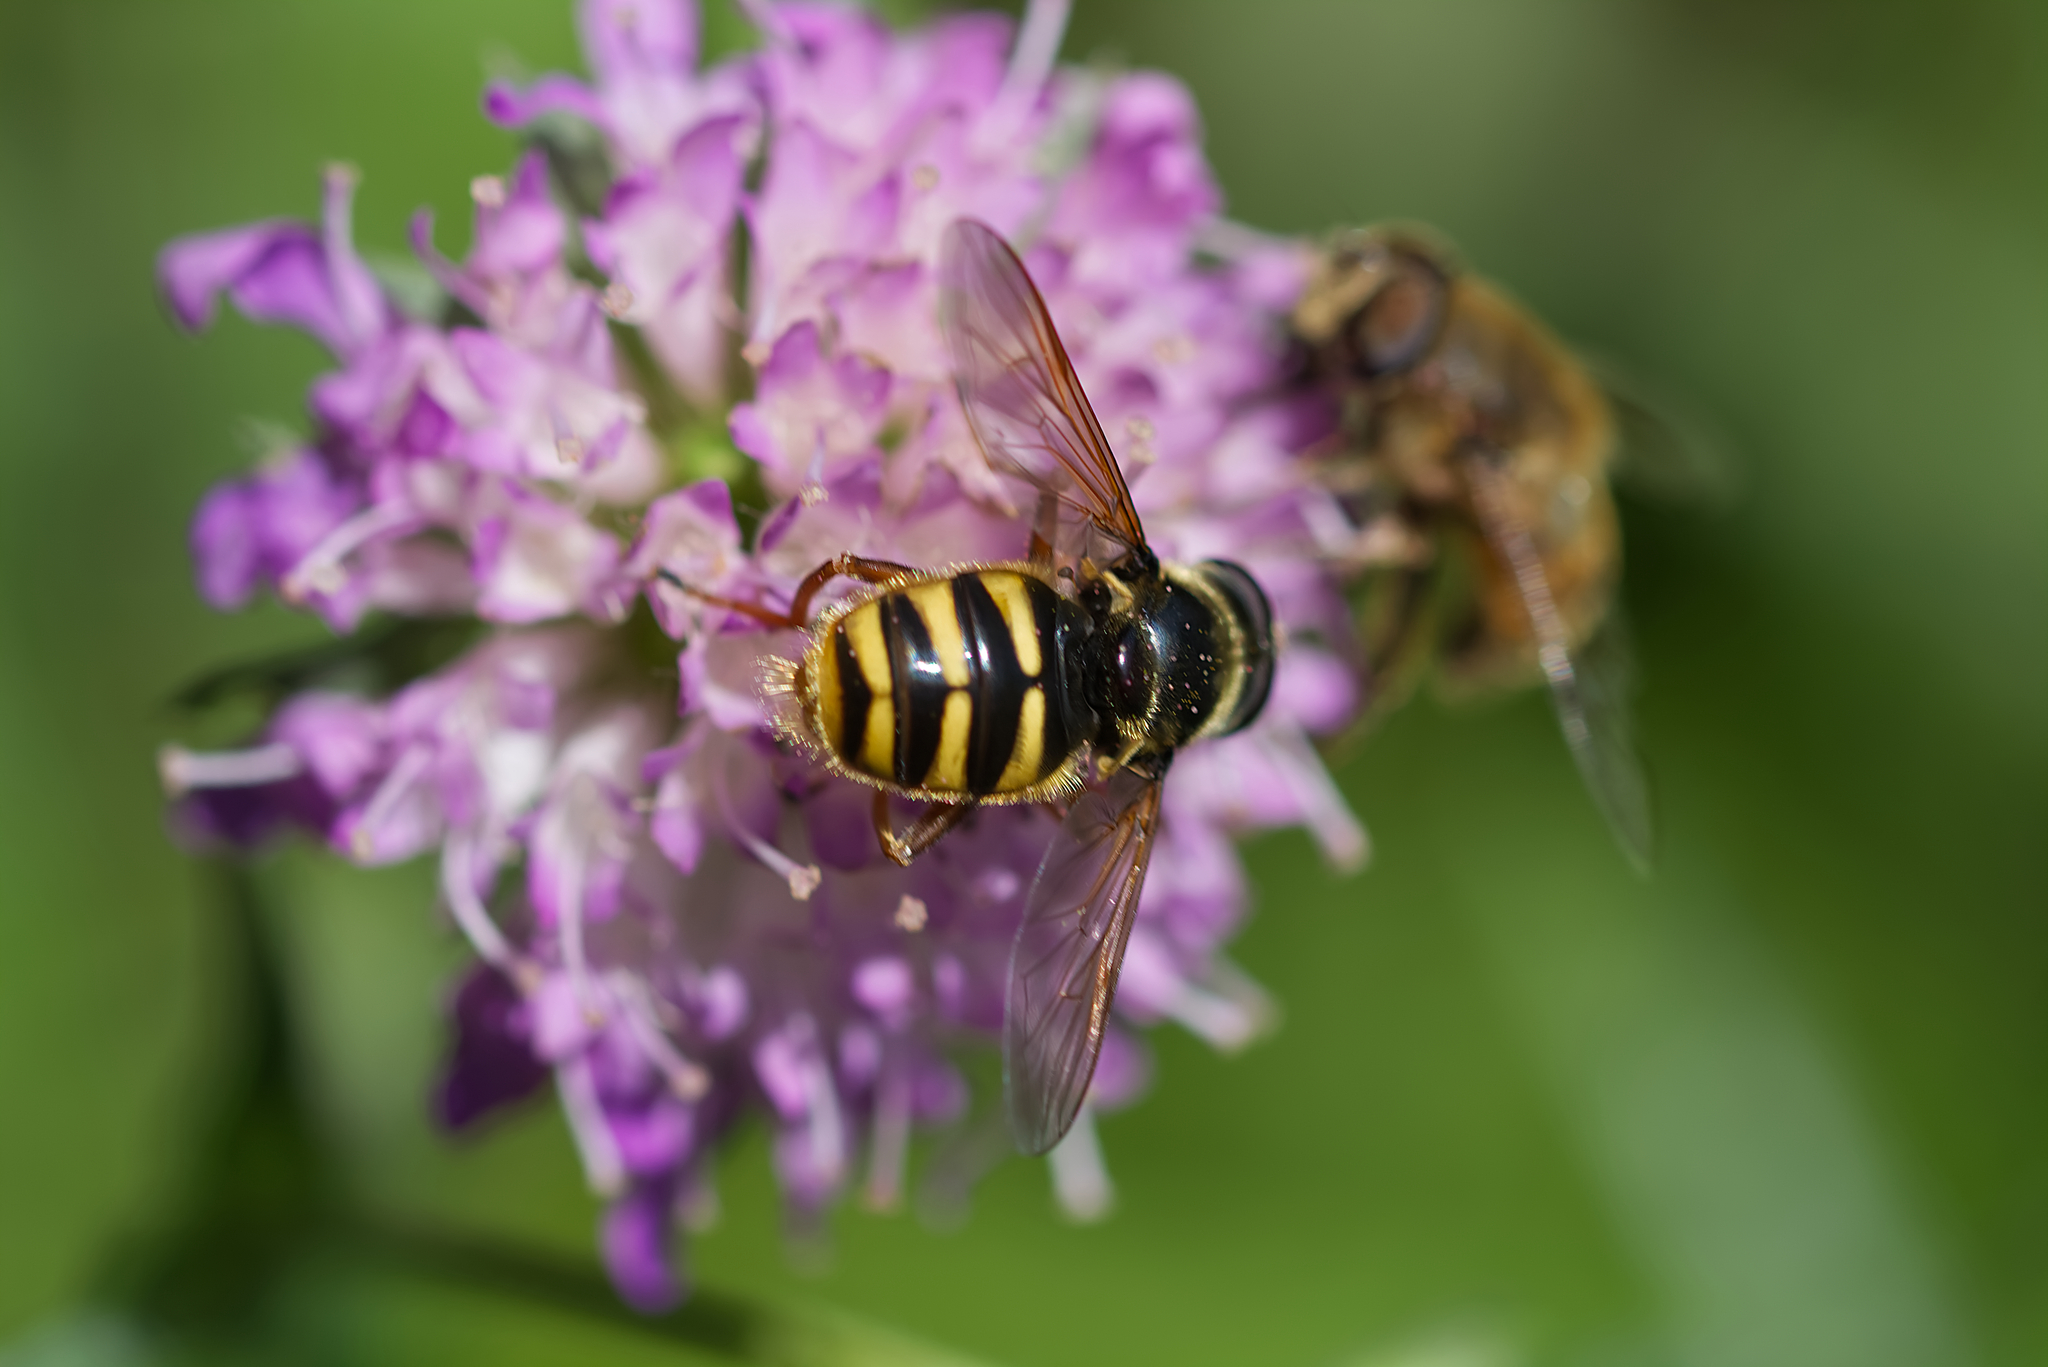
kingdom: Animalia
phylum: Arthropoda
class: Insecta
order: Diptera
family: Syrphidae
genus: Sericomyia
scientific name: Sericomyia silentis
